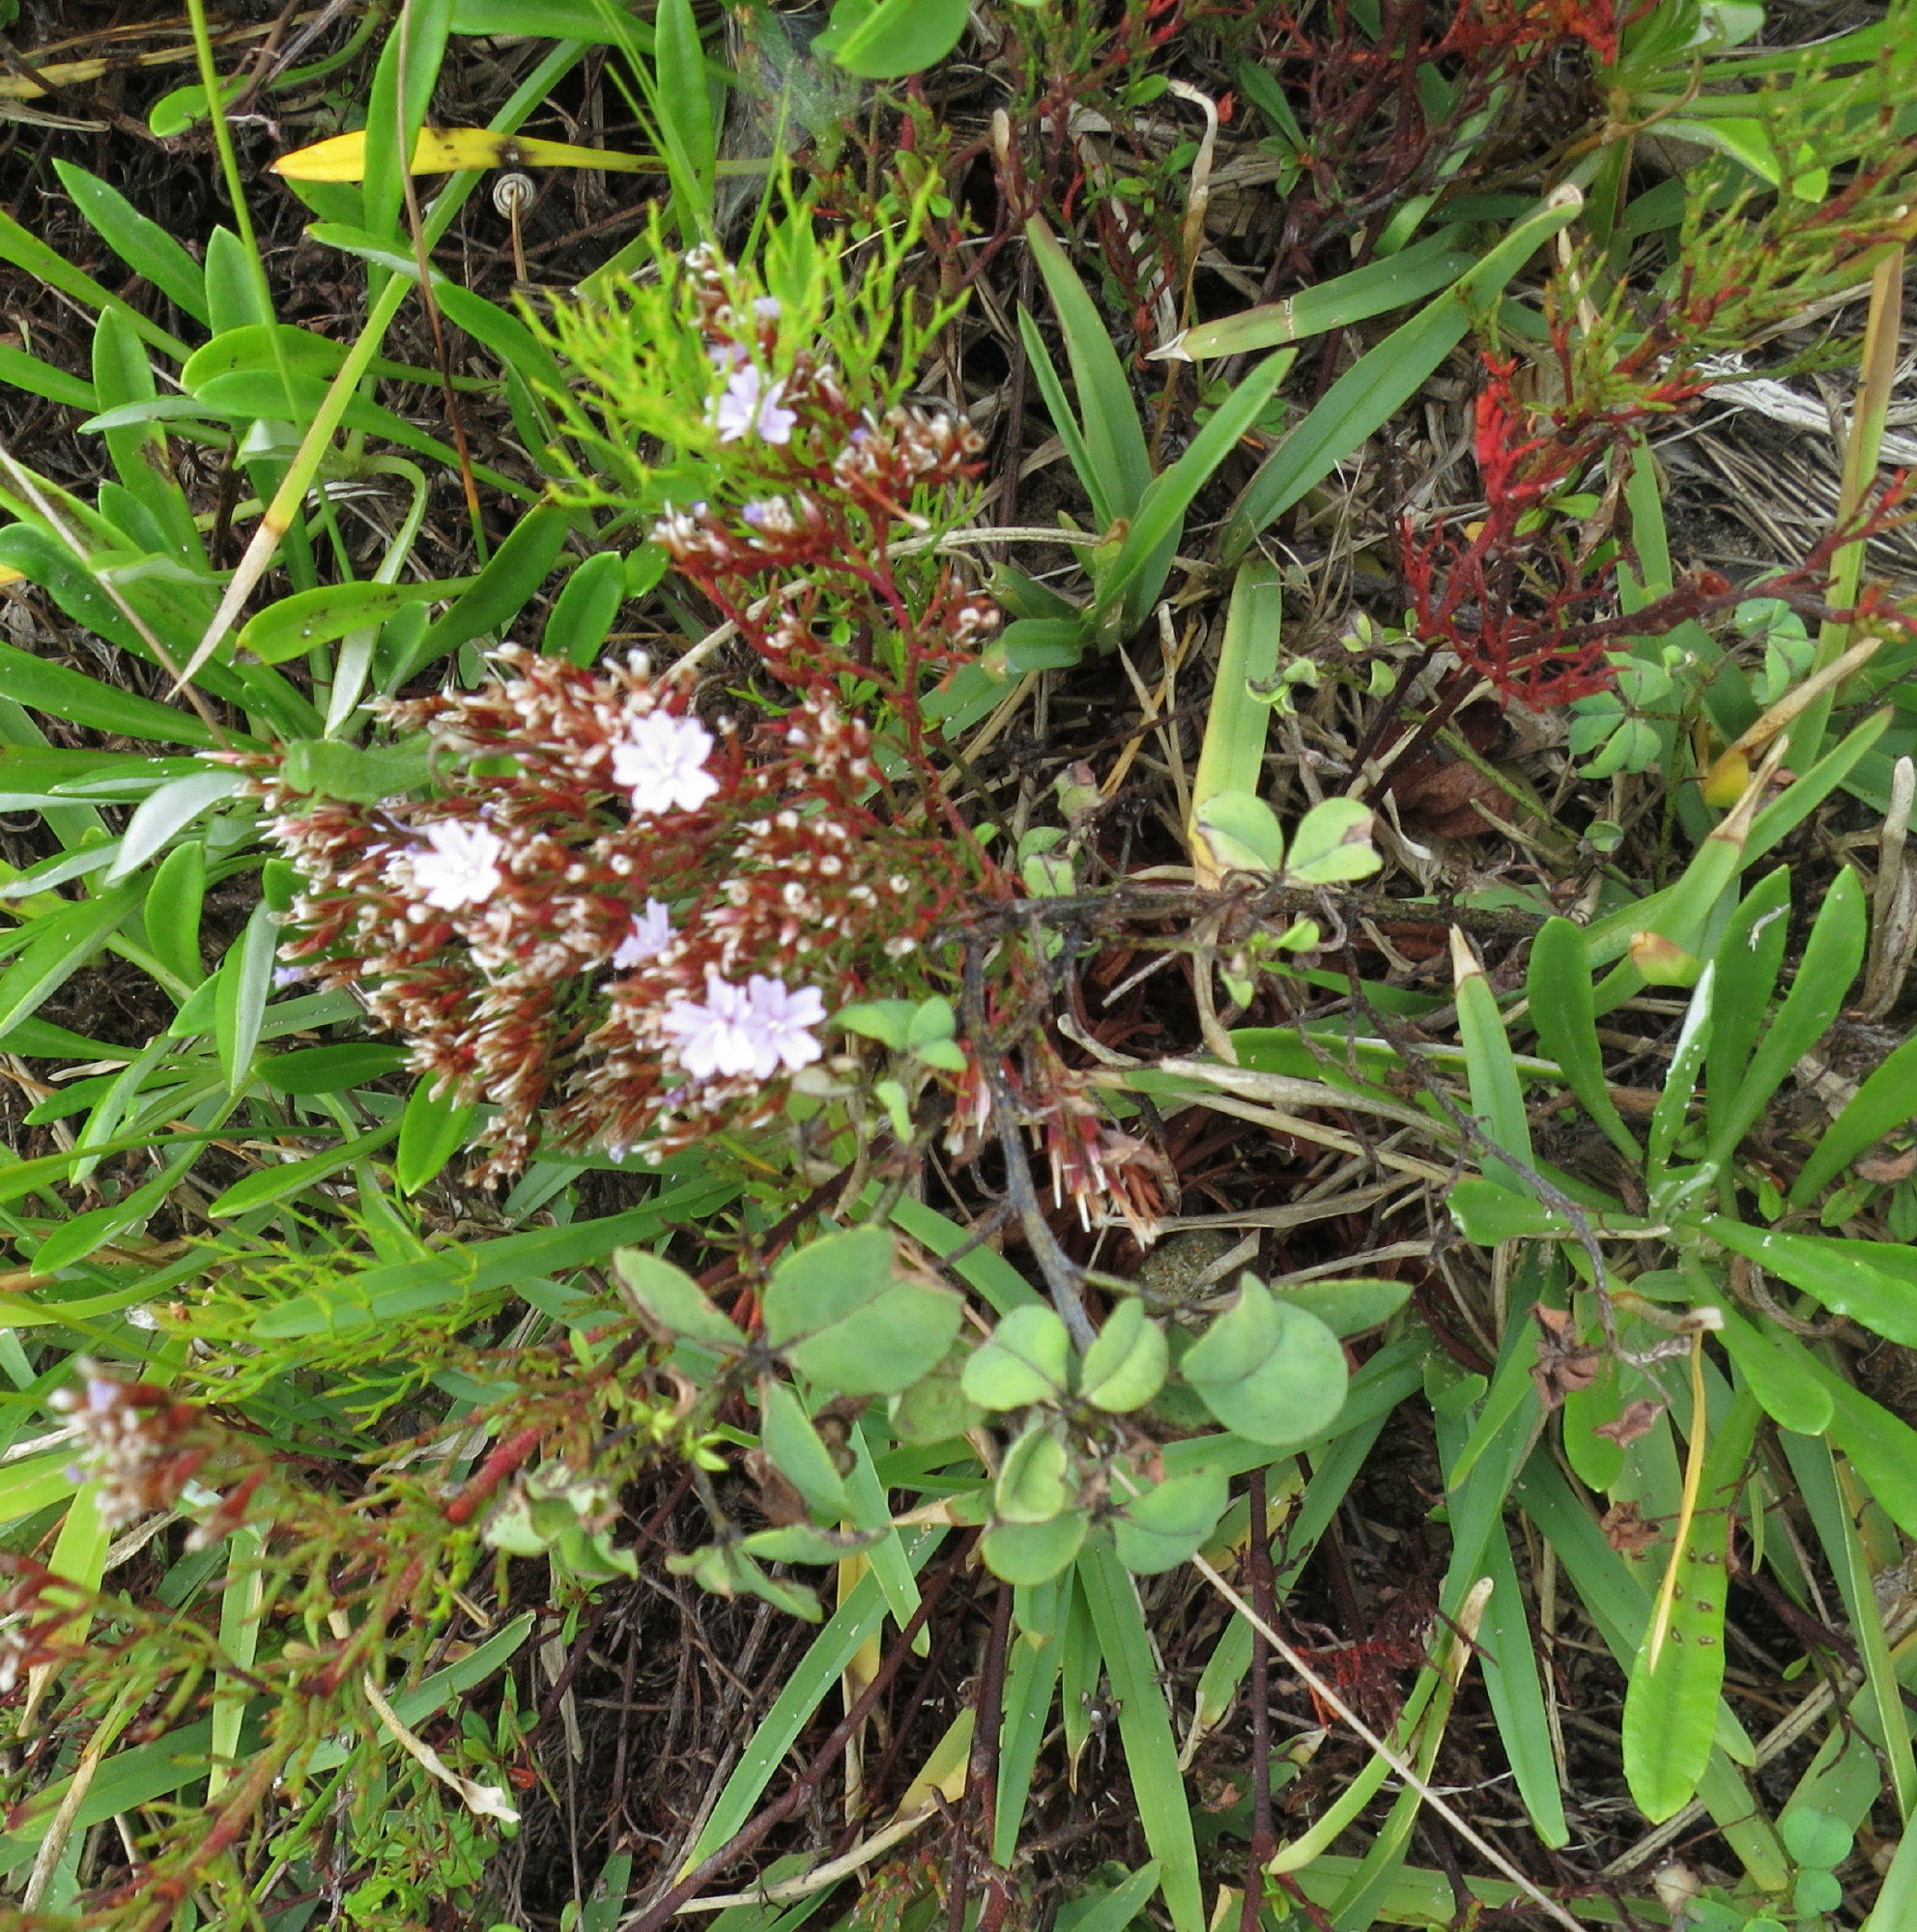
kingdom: Plantae
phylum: Tracheophyta
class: Magnoliopsida
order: Caryophyllales
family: Plumbaginaceae
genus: Limonium
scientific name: Limonium scabrum
